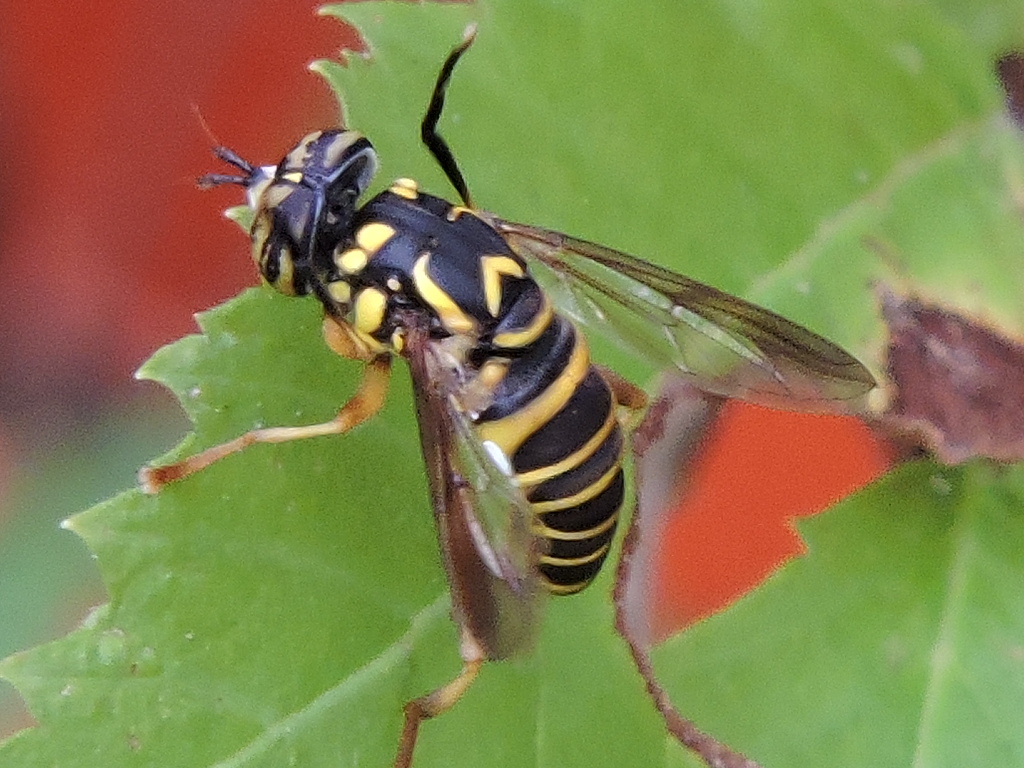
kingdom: Animalia
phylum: Arthropoda
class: Insecta
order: Diptera
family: Syrphidae
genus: Spilomyia
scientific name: Spilomyia longicornis
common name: Eastern hornet fly
